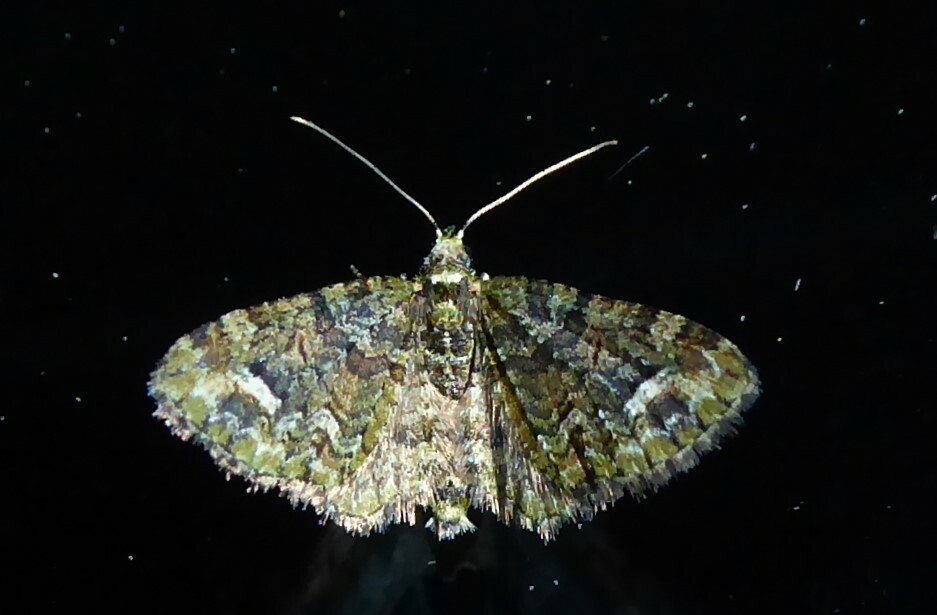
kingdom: Animalia
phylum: Arthropoda
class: Insecta
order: Lepidoptera
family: Geometridae
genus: Idaea
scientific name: Idaea mutanda
